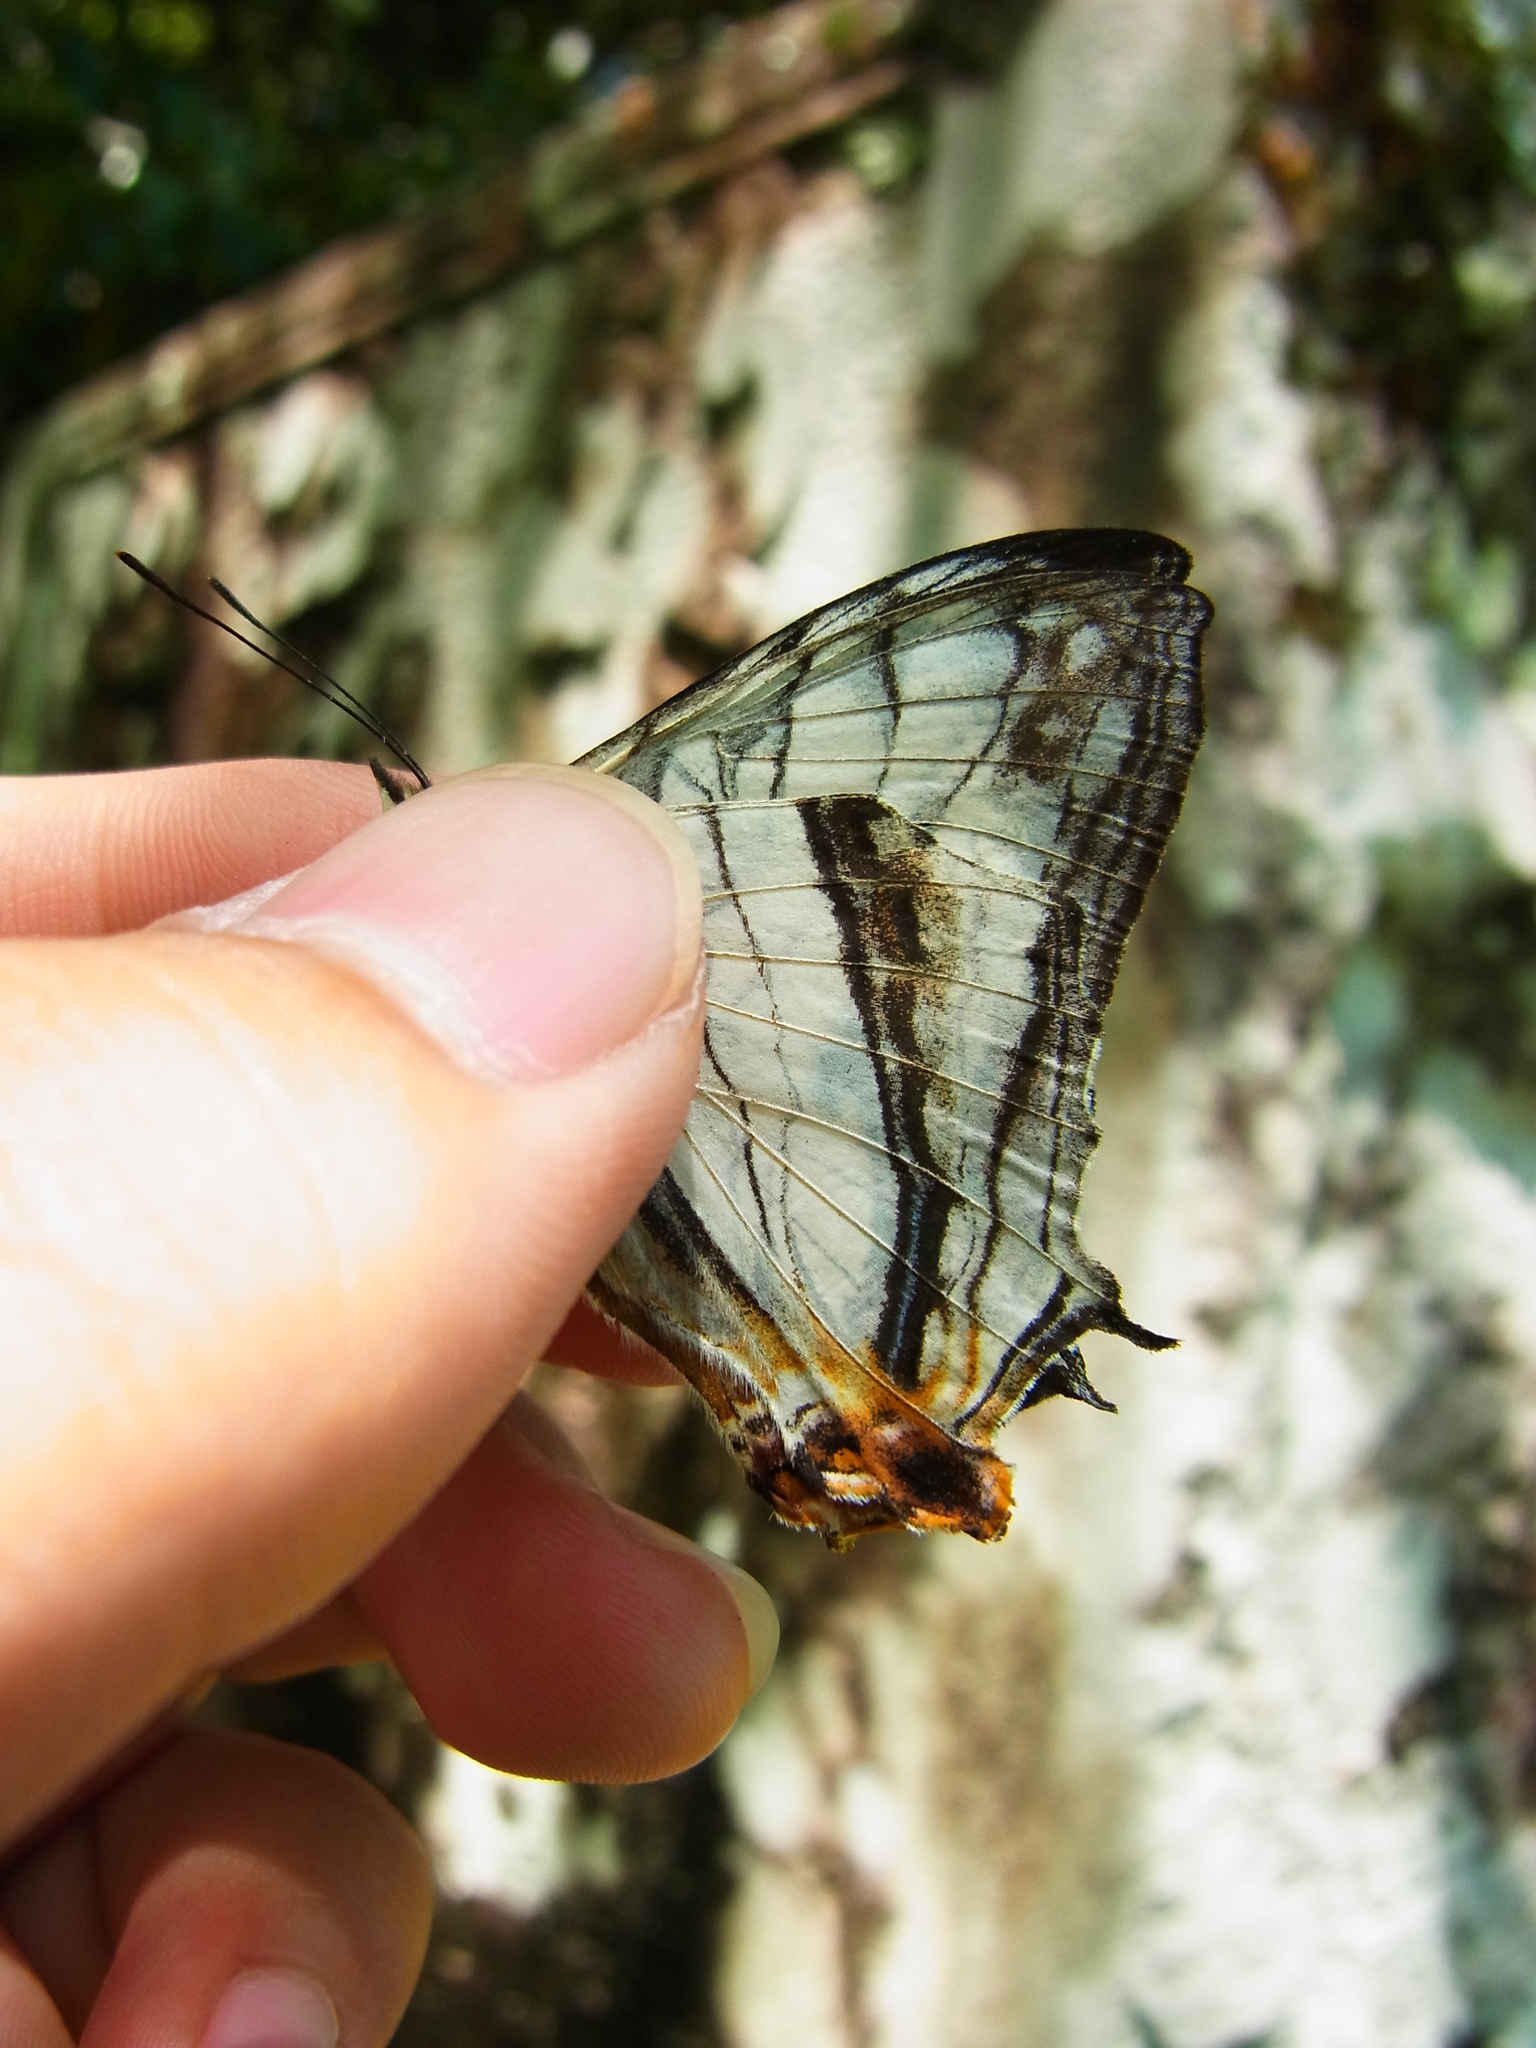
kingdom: Animalia
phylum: Arthropoda
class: Insecta
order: Lepidoptera
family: Nymphalidae
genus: Cyrestis
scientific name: Cyrestis thyodamas
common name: Common mapwing
